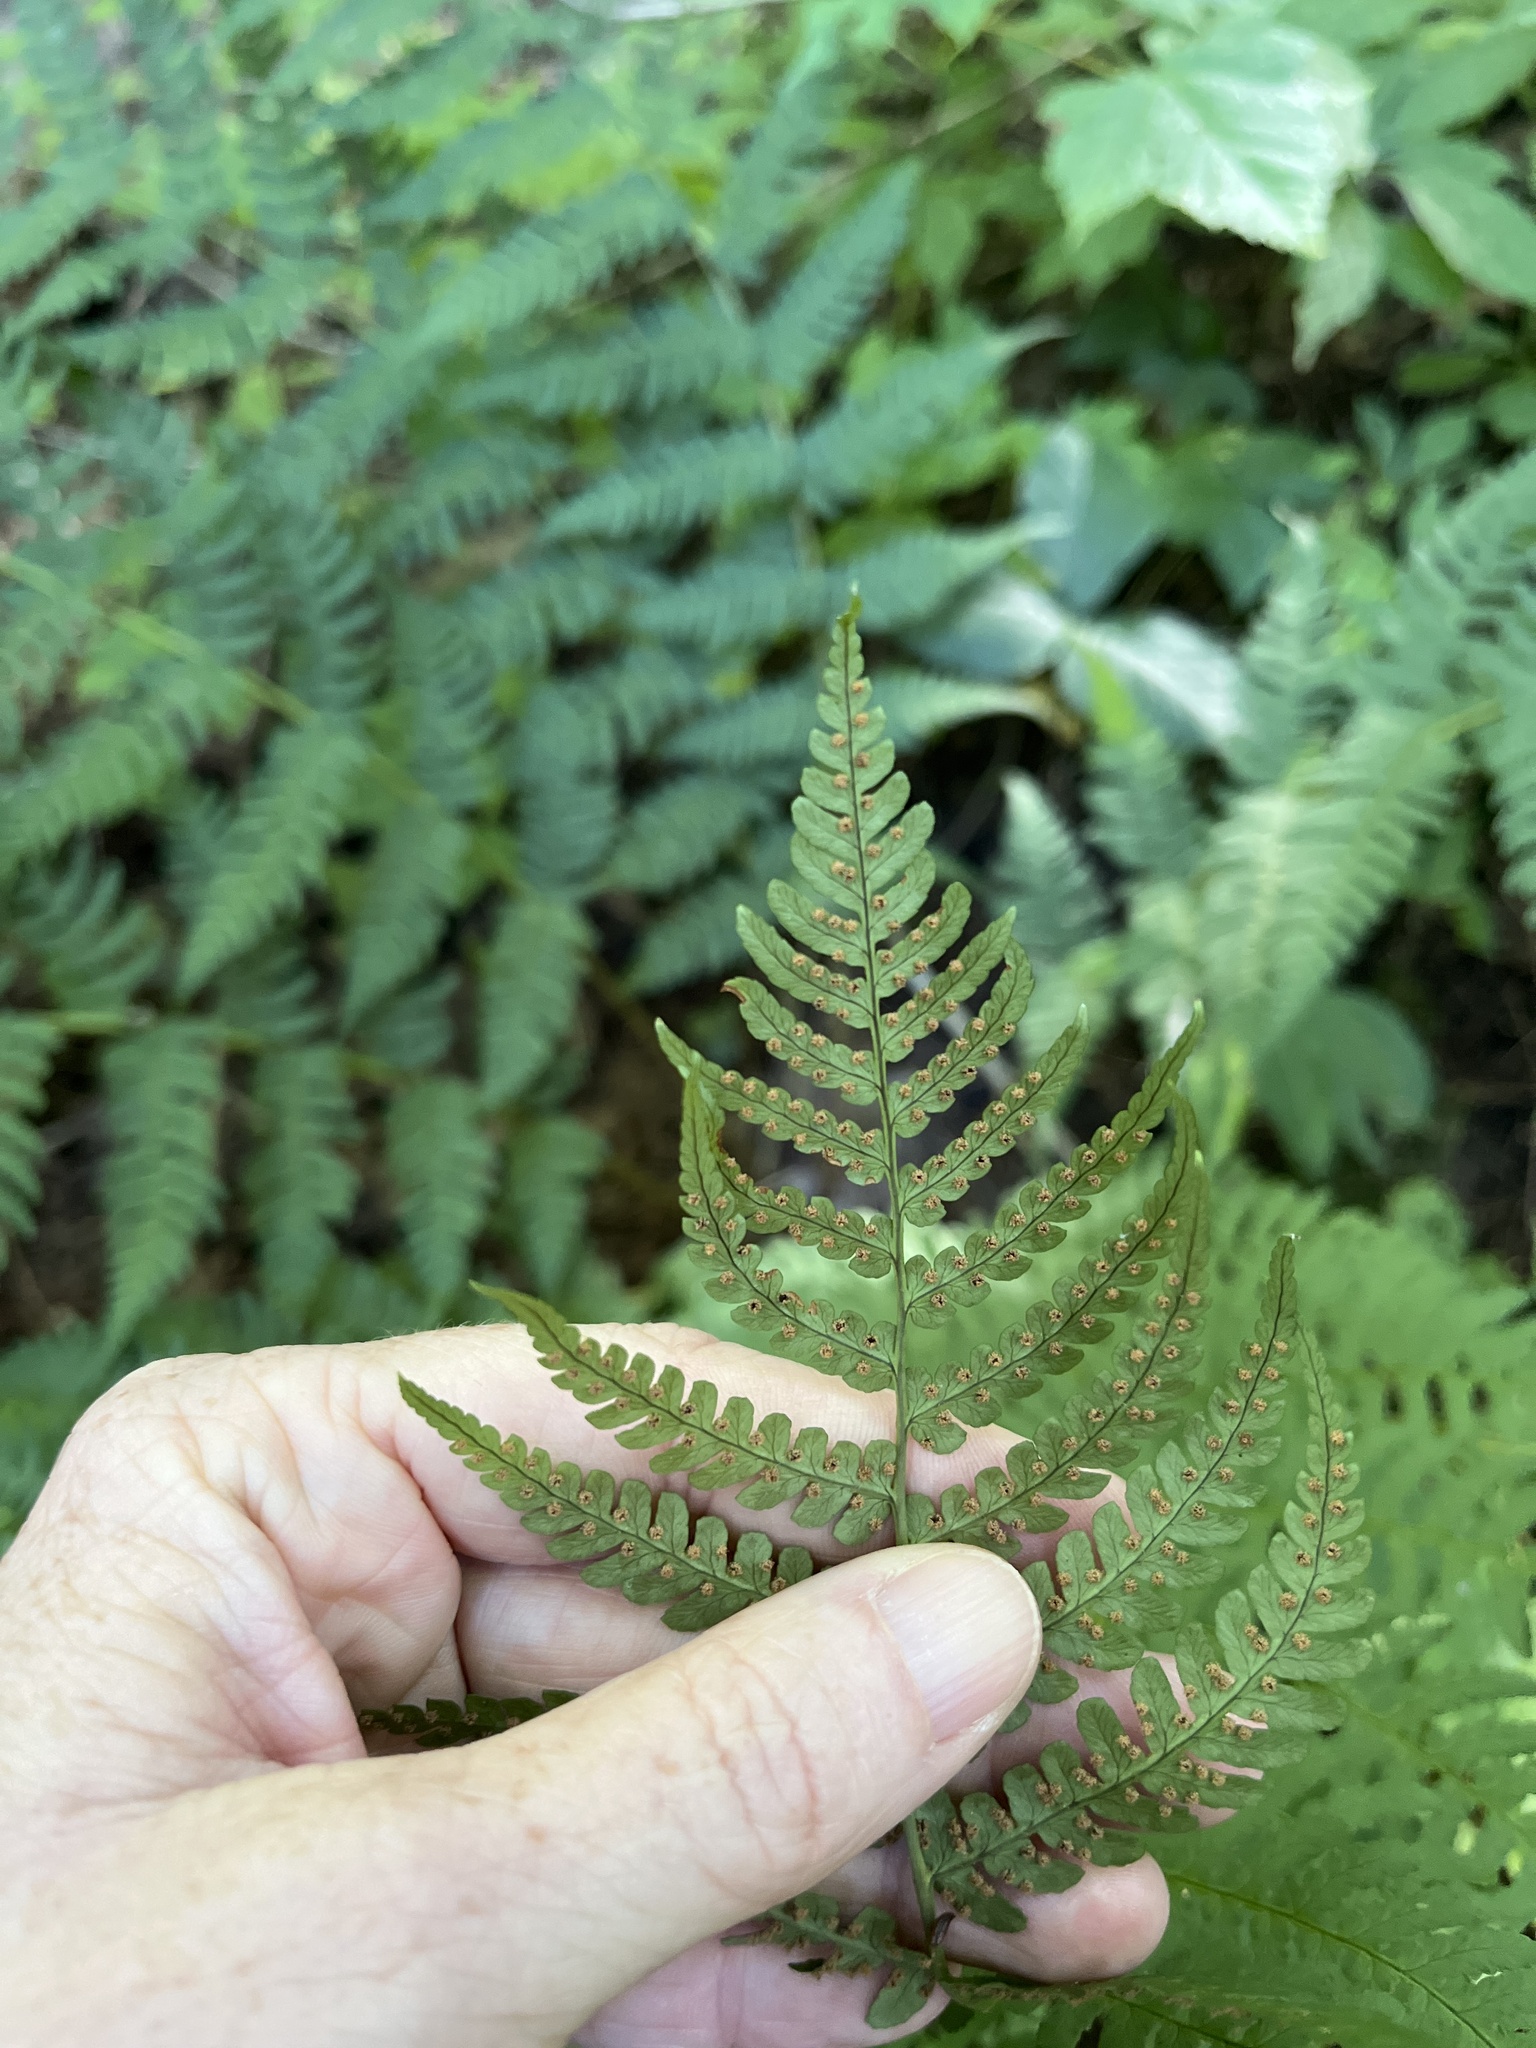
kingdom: Plantae
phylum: Tracheophyta
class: Polypodiopsida
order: Polypodiales
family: Dryopteridaceae
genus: Dryopteris
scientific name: Dryopteris marginalis
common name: Marginal wood fern
